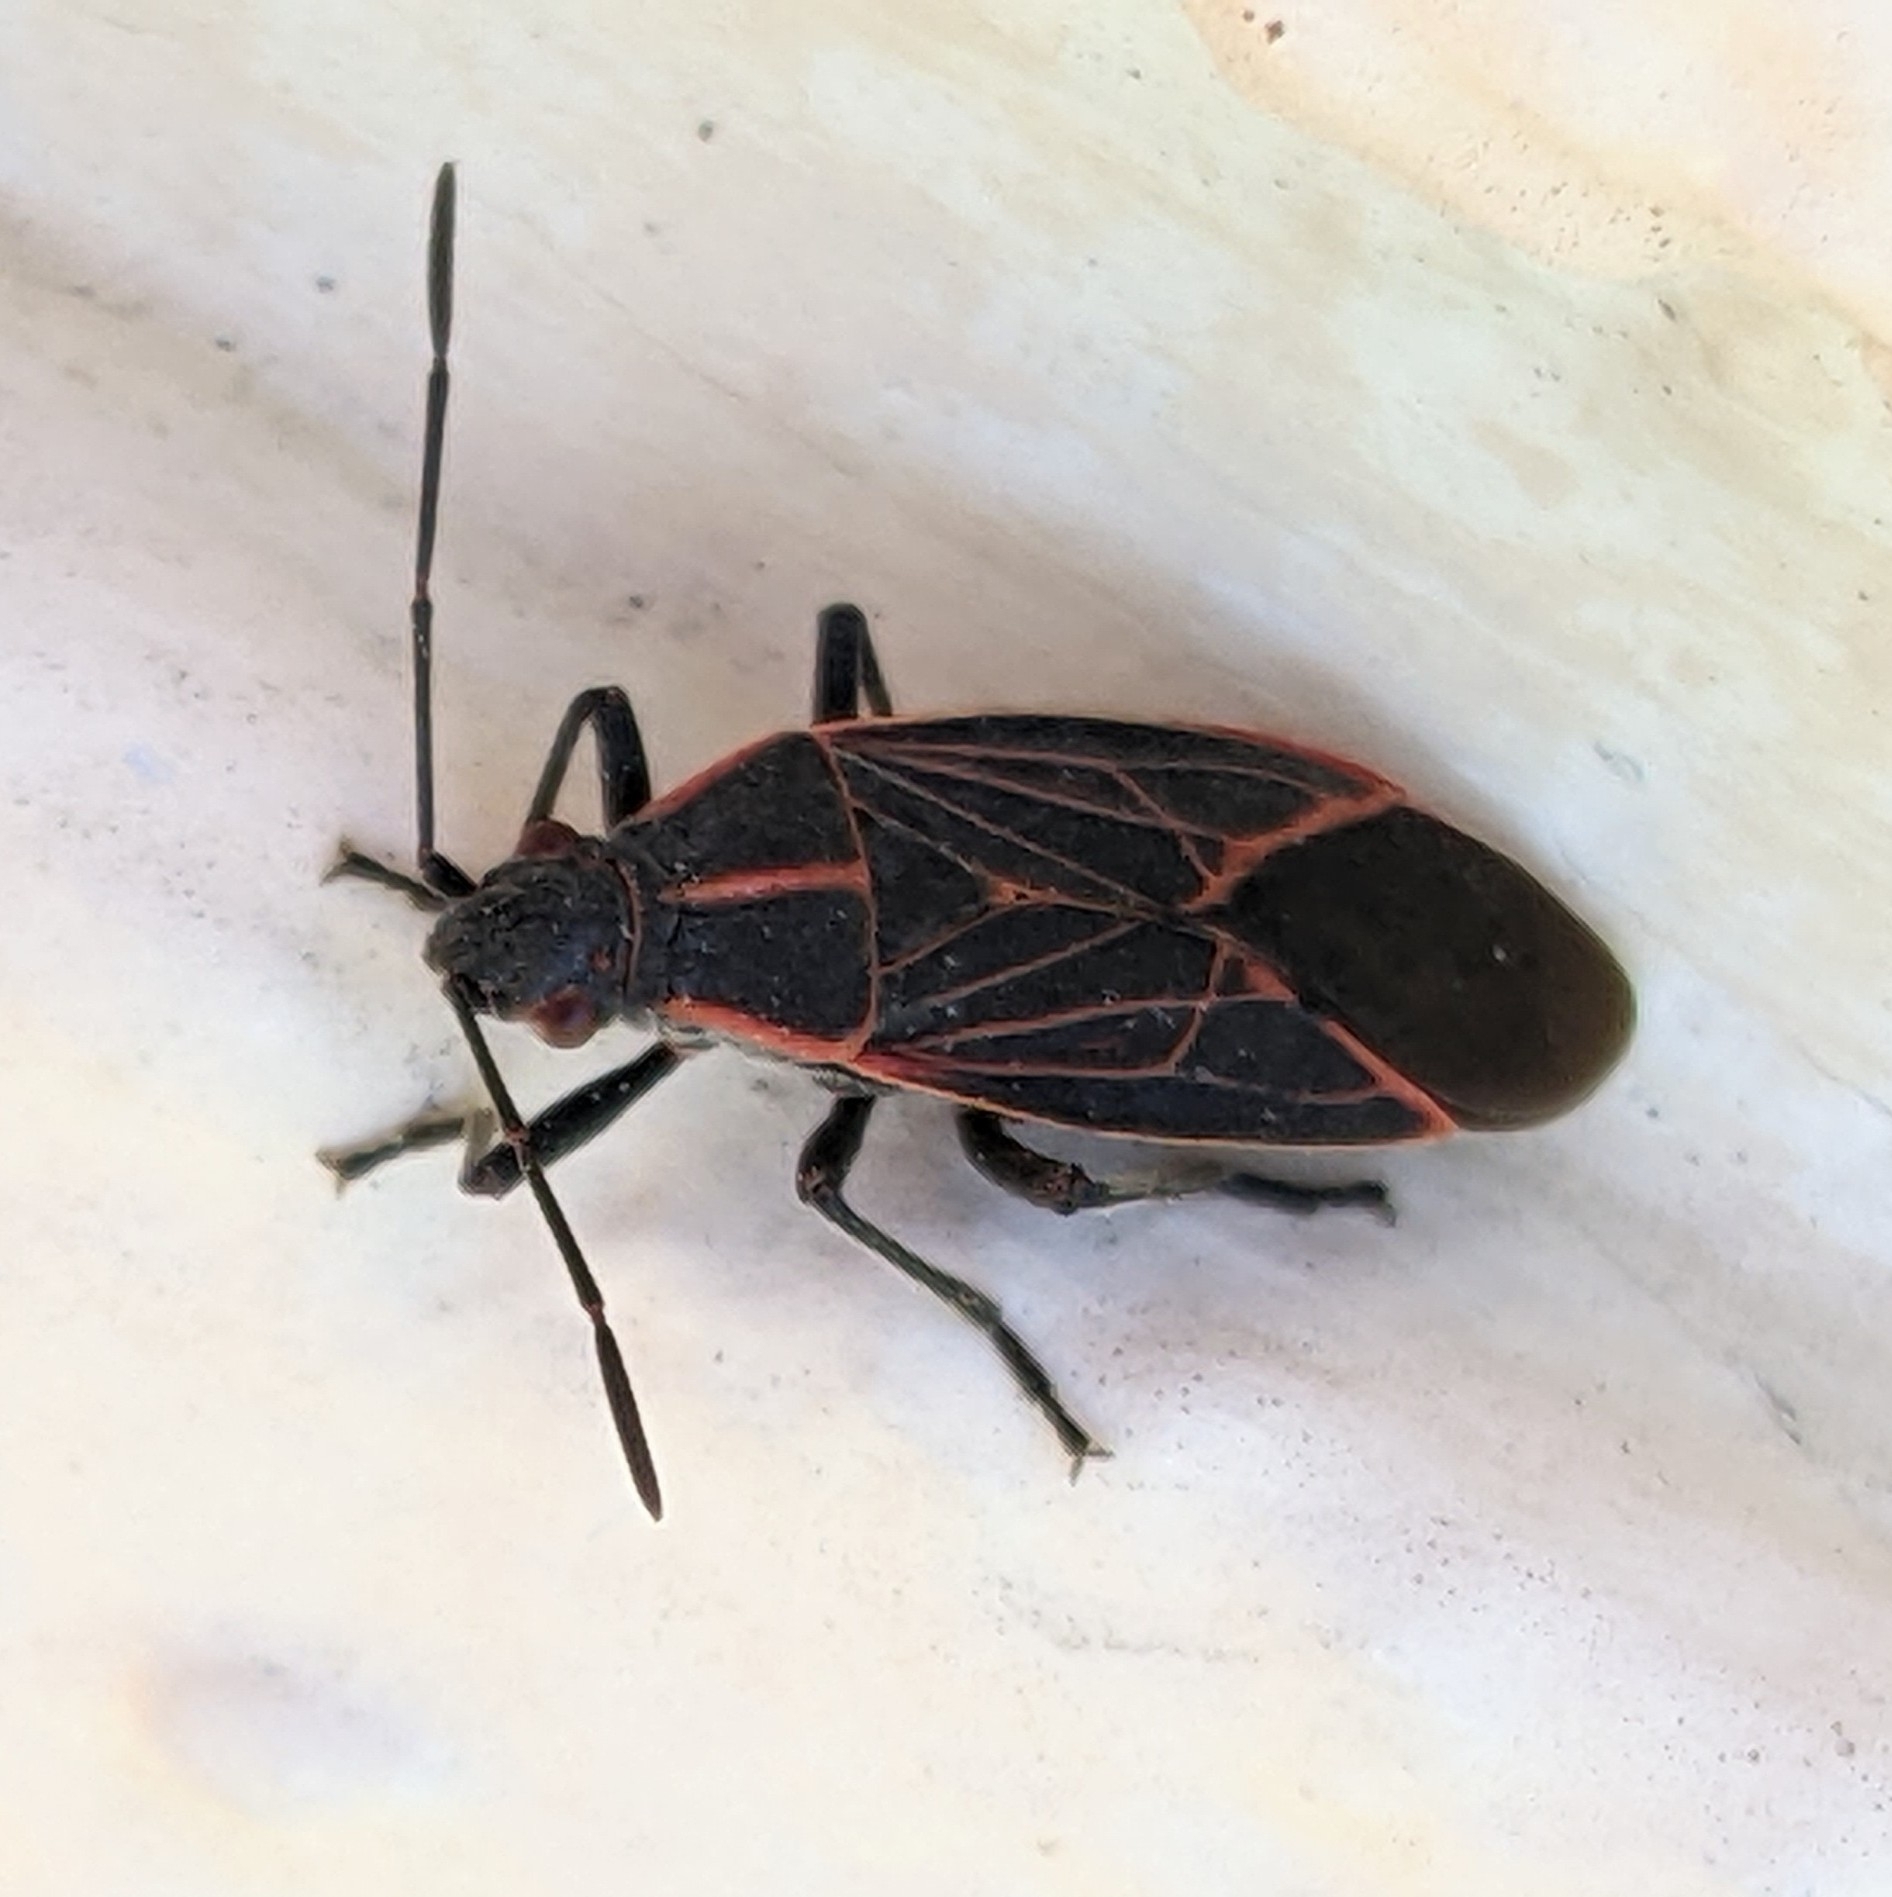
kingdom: Animalia
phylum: Arthropoda
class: Insecta
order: Hemiptera
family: Rhopalidae
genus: Boisea
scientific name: Boisea rubrolineata
